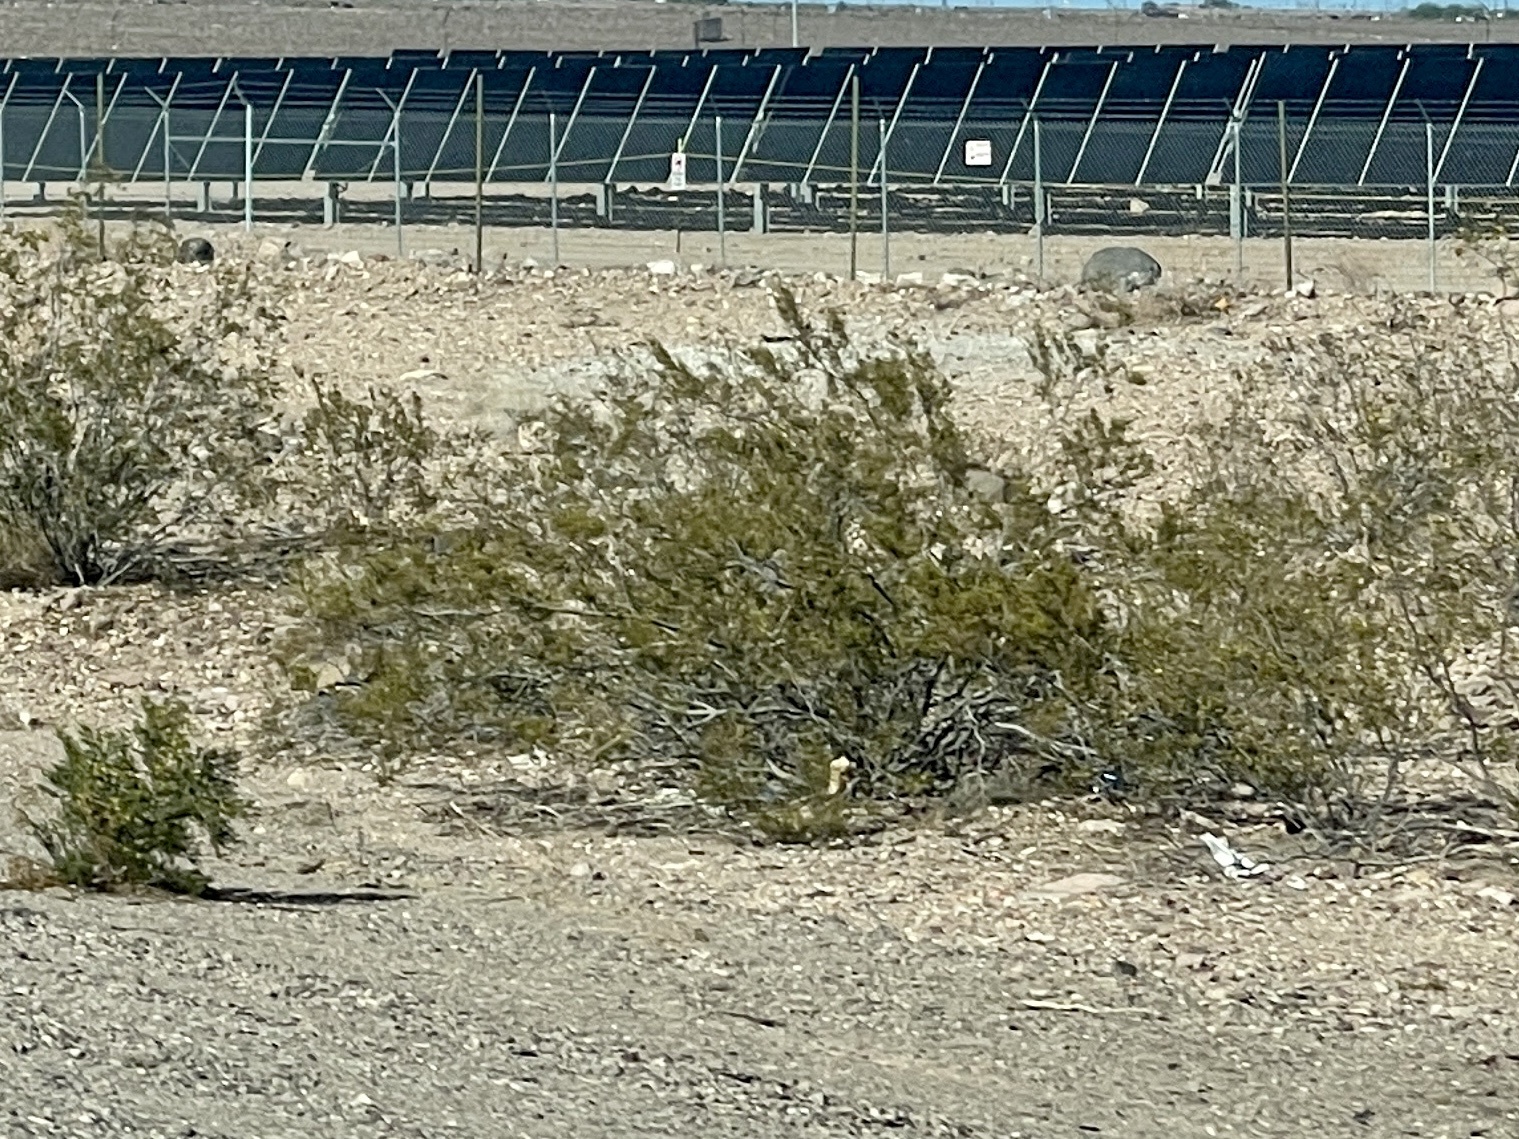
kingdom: Plantae
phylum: Tracheophyta
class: Magnoliopsida
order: Zygophyllales
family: Zygophyllaceae
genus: Larrea
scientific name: Larrea tridentata
